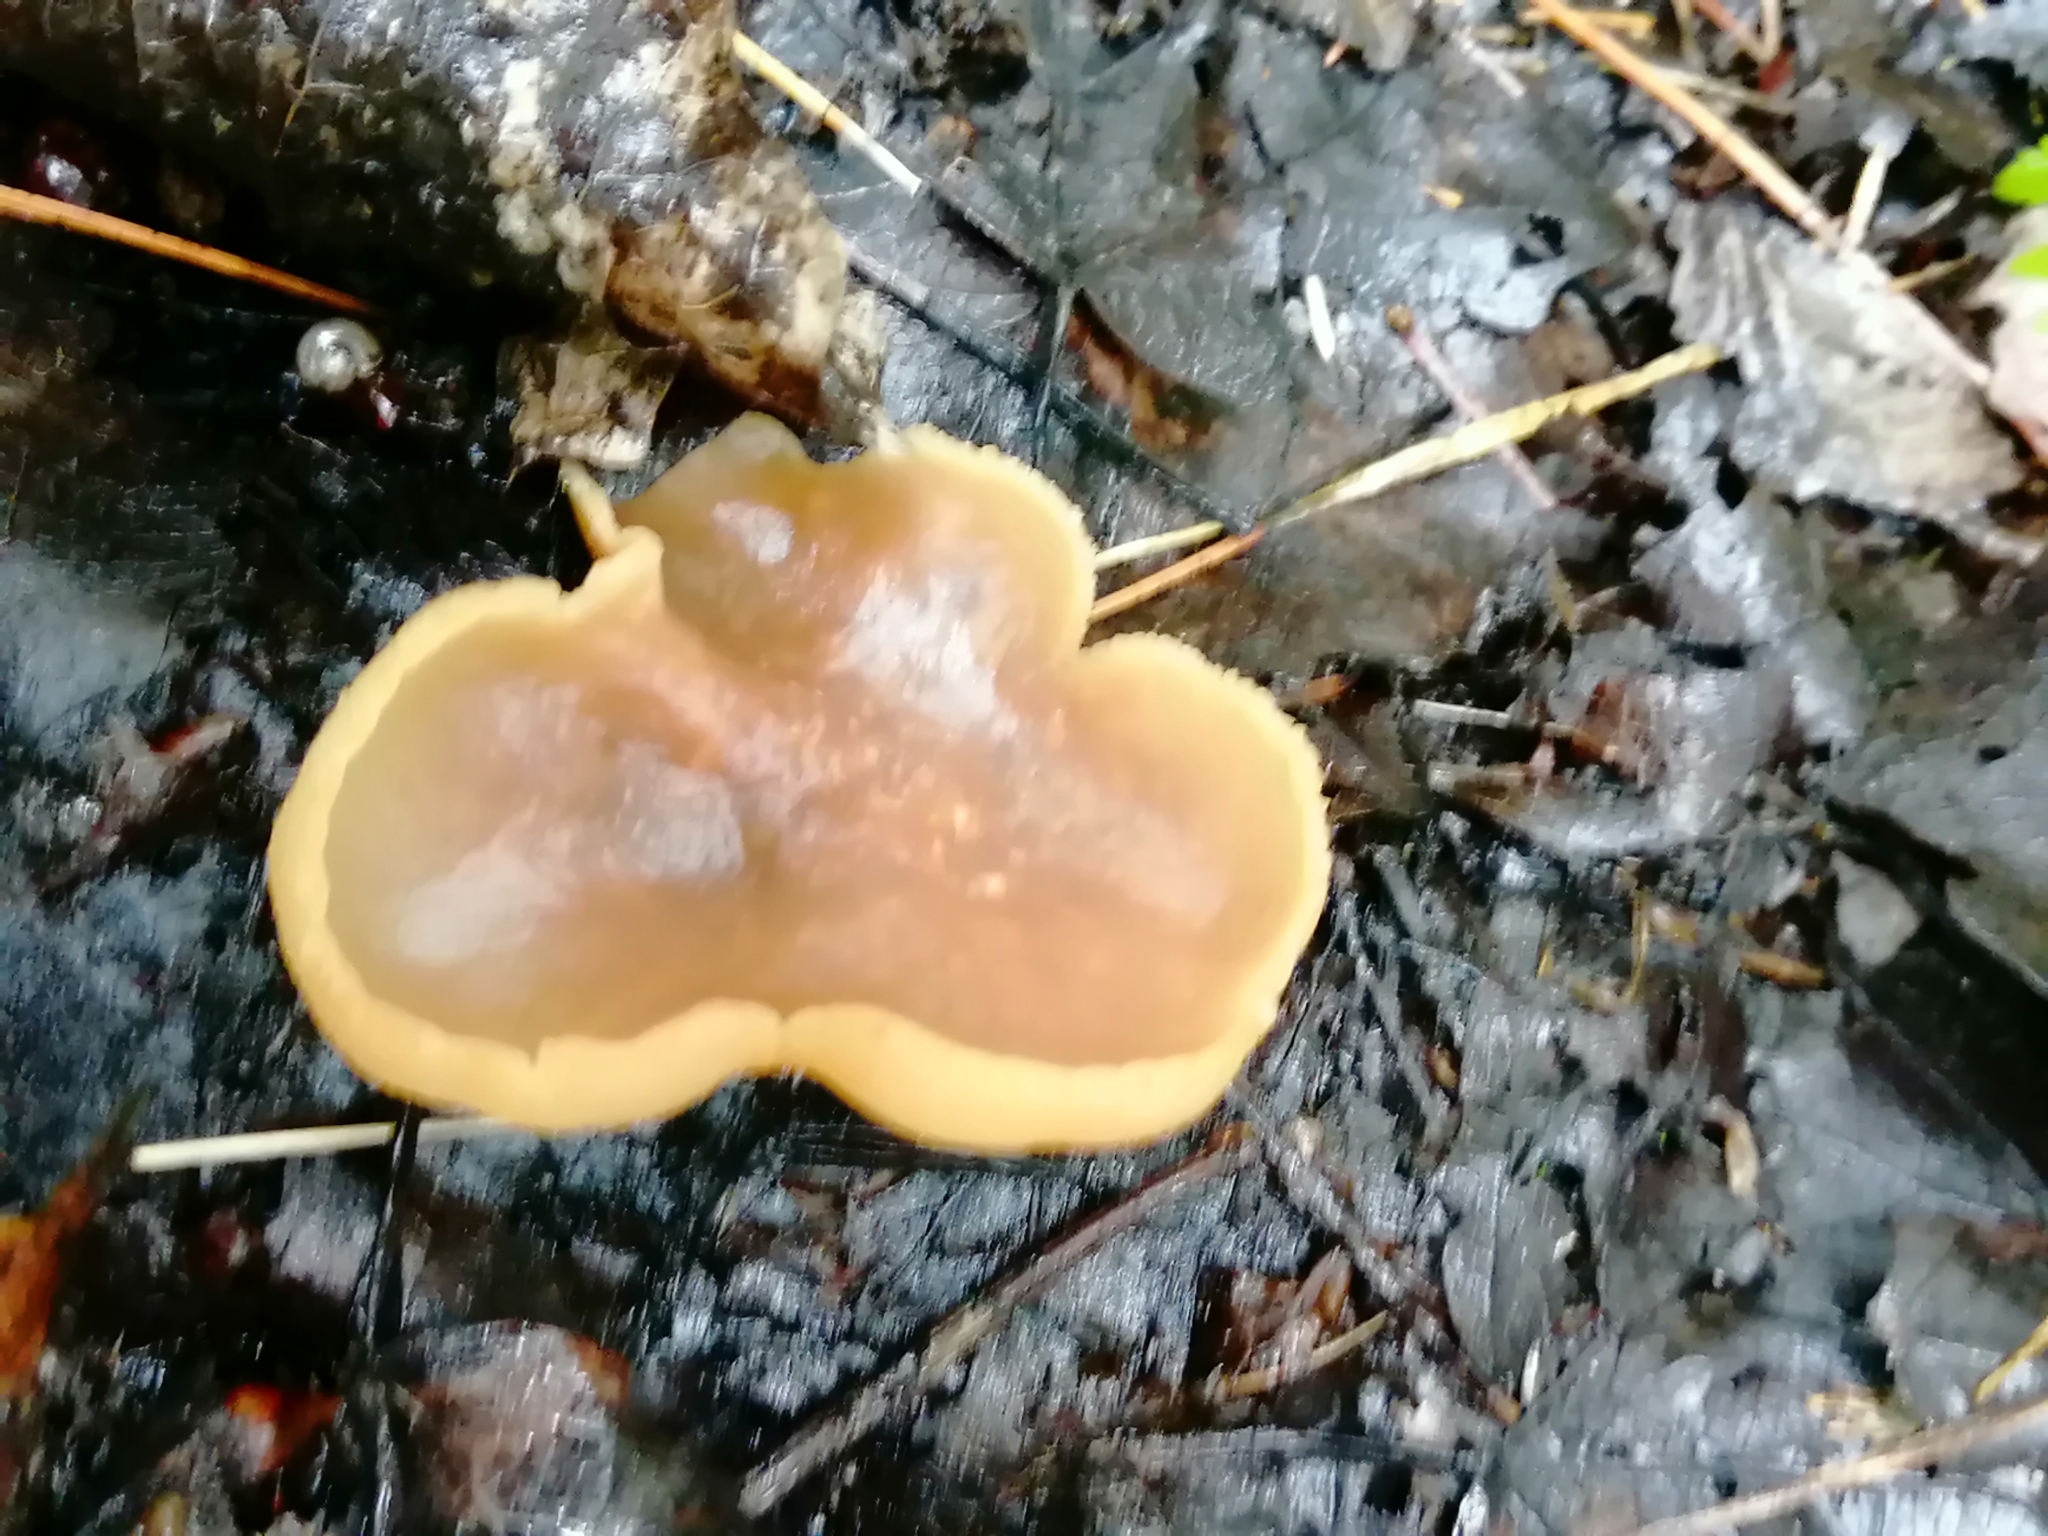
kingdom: Fungi
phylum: Ascomycota
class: Pezizomycetes
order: Pezizales
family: Pezizaceae
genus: Peziza
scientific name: Peziza varia
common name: Layered cup
